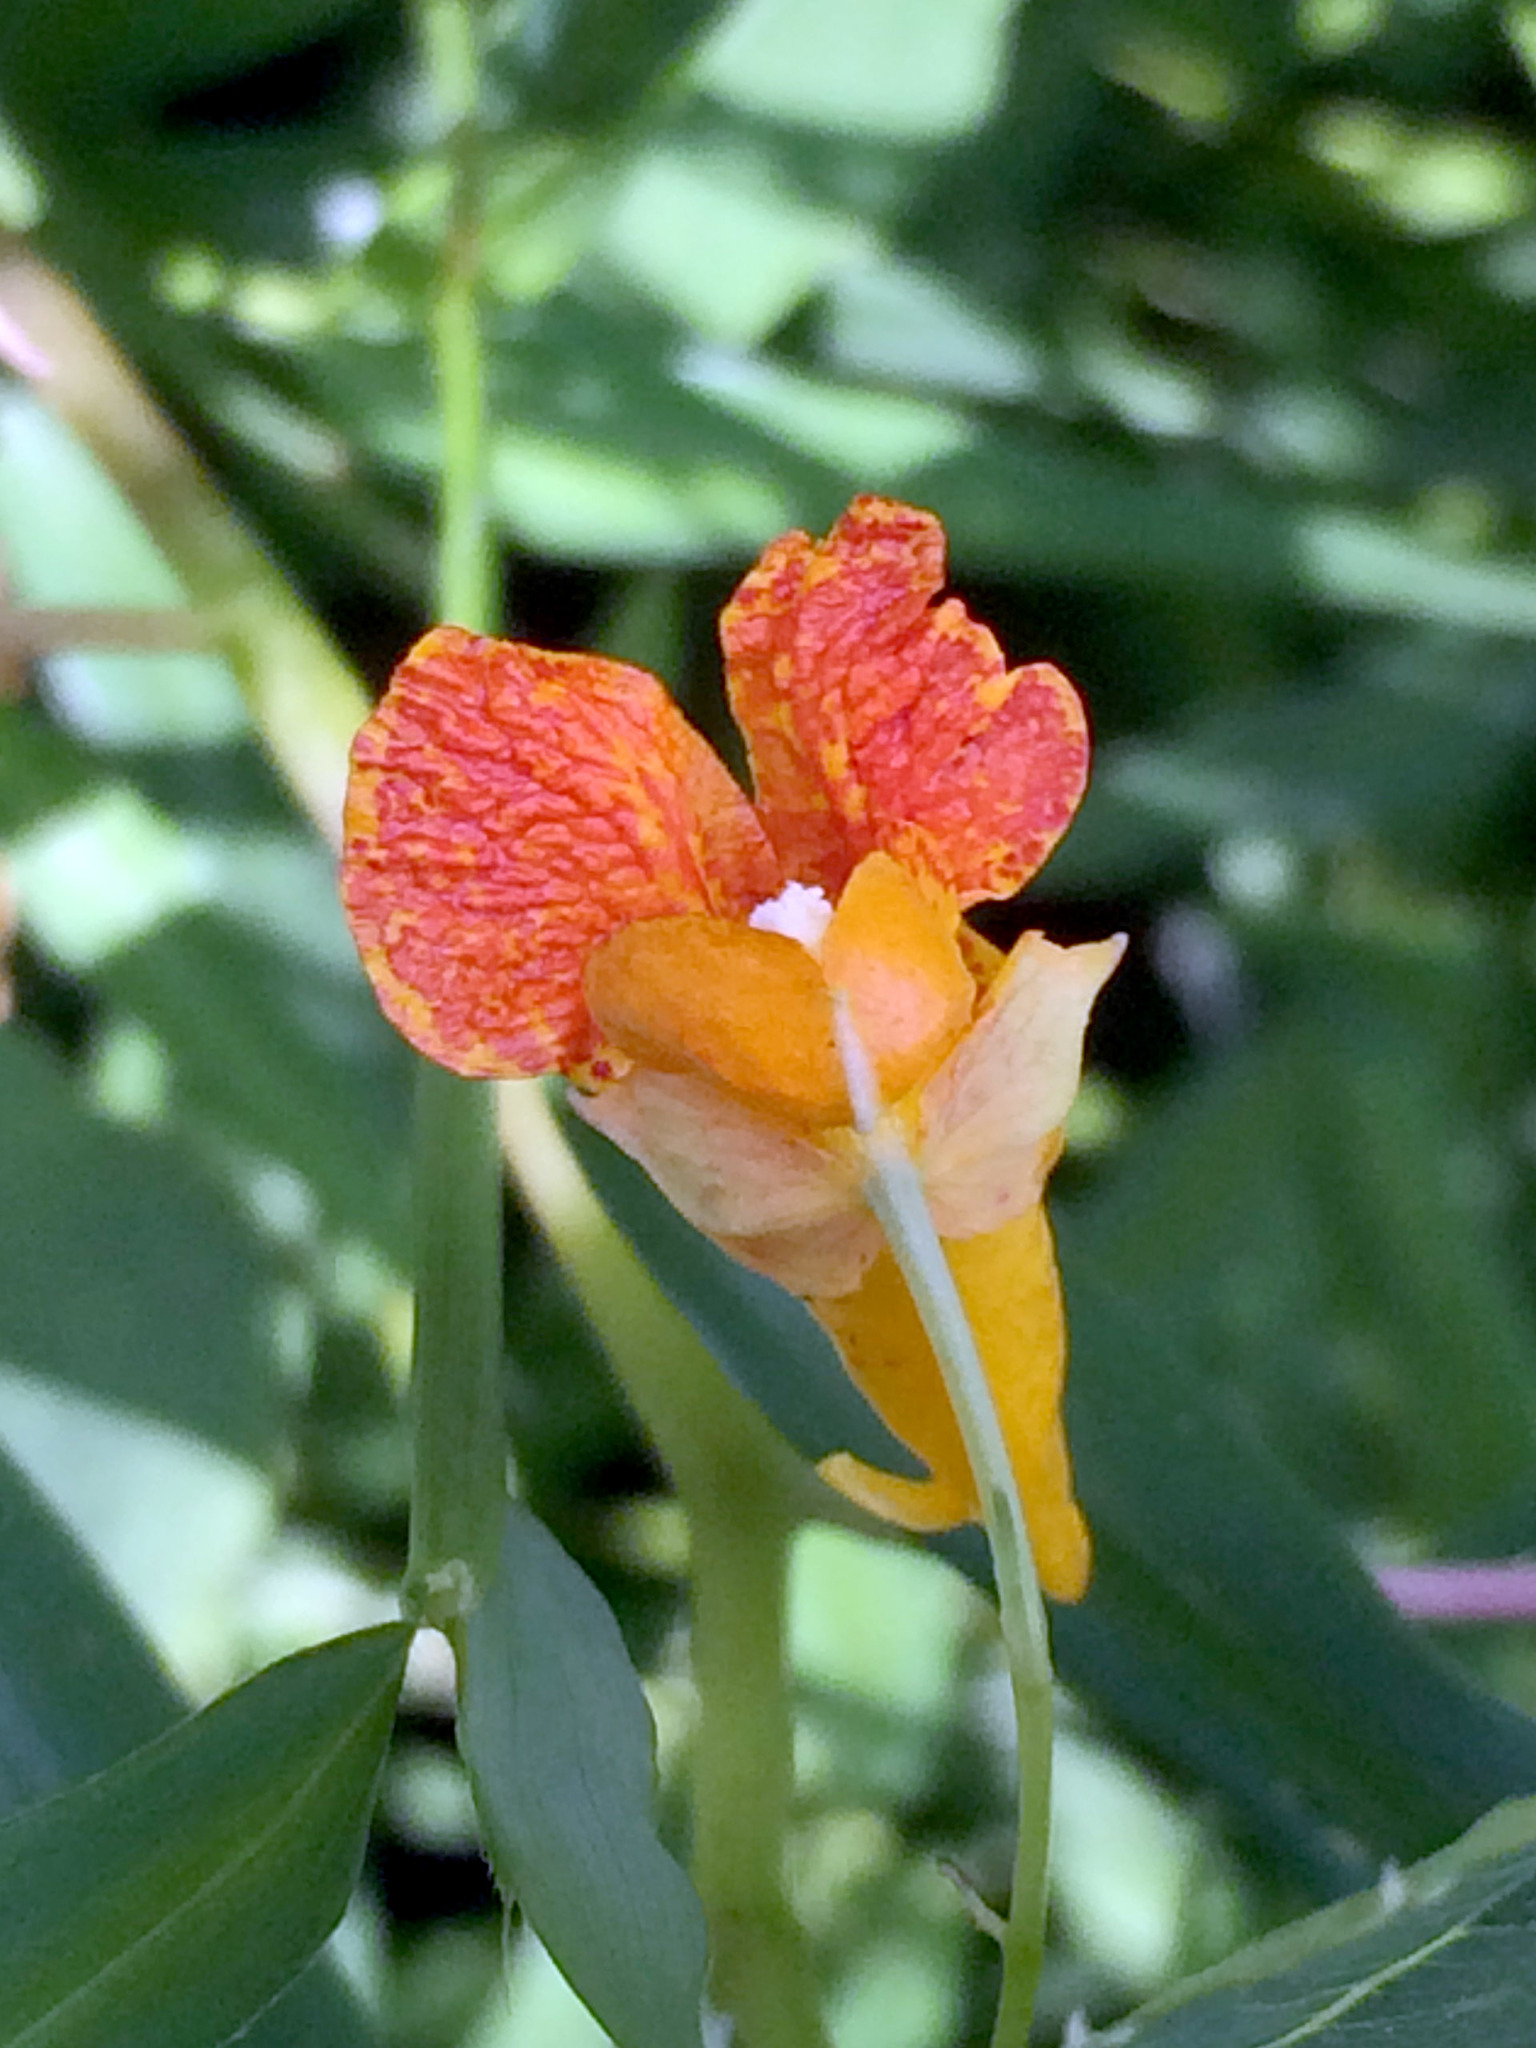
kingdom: Plantae
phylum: Tracheophyta
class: Magnoliopsida
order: Ericales
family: Balsaminaceae
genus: Impatiens
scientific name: Impatiens capensis
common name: Orange balsam
